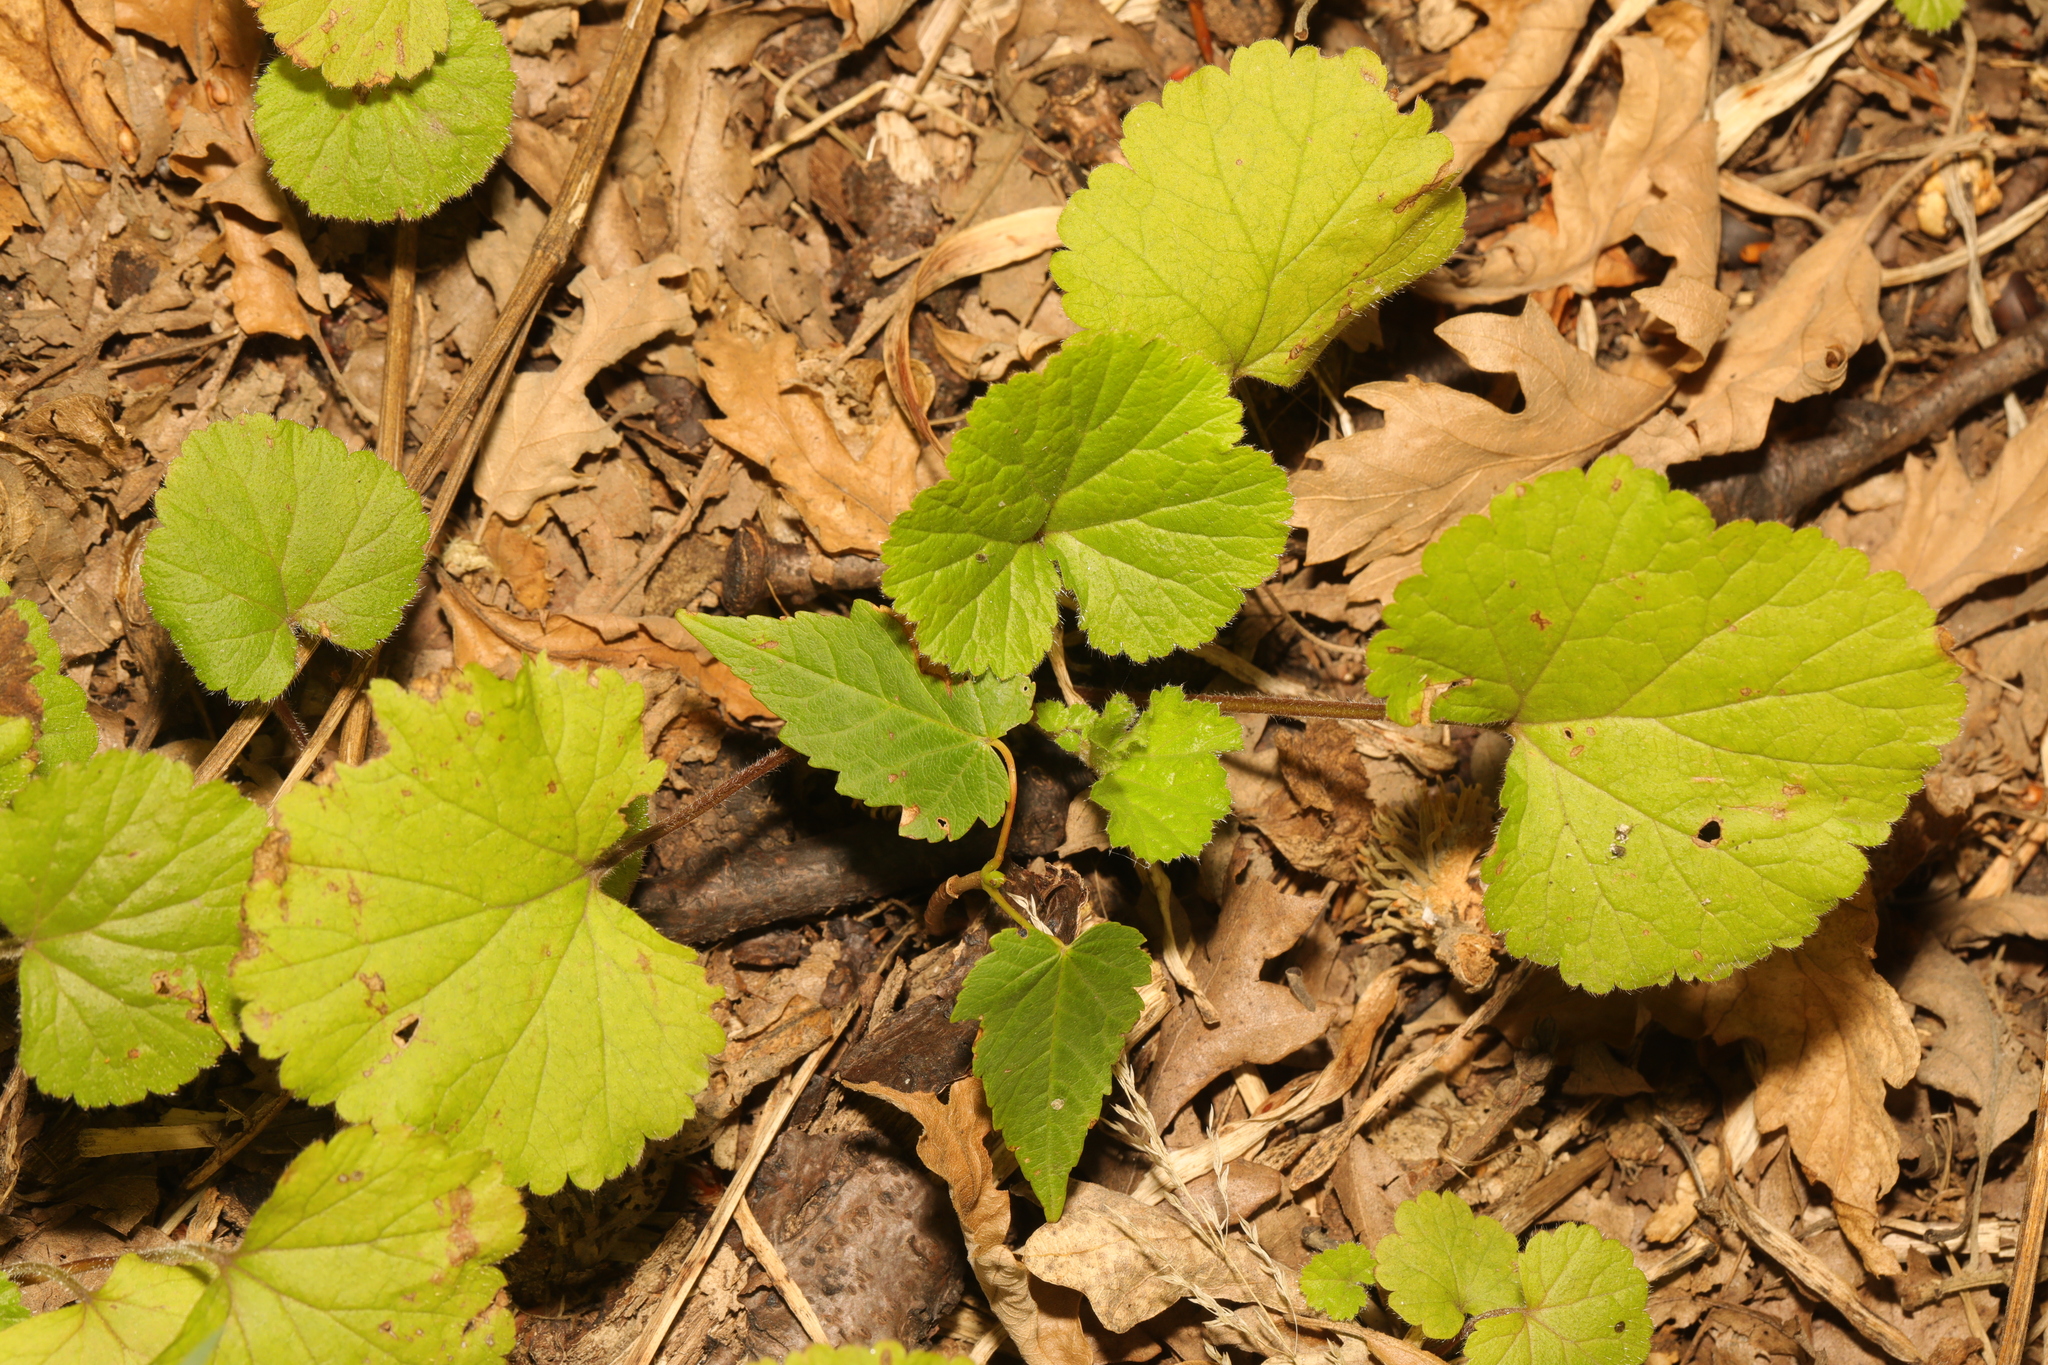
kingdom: Plantae
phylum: Tracheophyta
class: Magnoliopsida
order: Rosales
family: Rosaceae
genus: Geum
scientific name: Geum urbanum
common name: Wood avens
